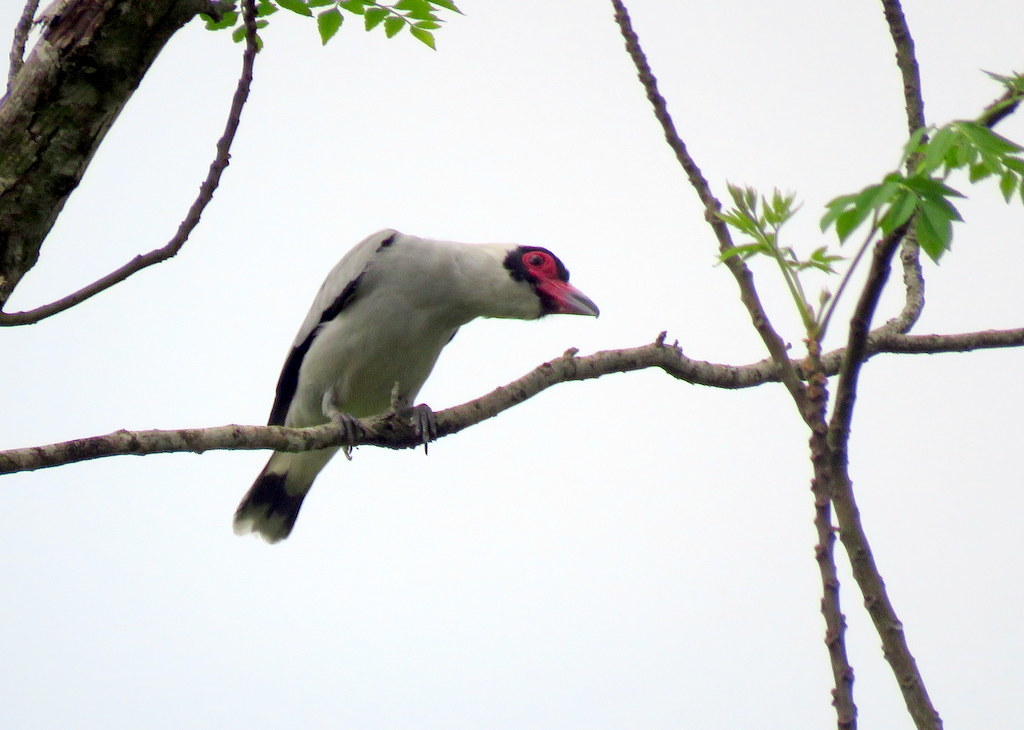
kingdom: Animalia
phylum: Chordata
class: Aves
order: Passeriformes
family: Cotingidae
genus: Tityra
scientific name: Tityra semifasciata
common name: Masked tityra
